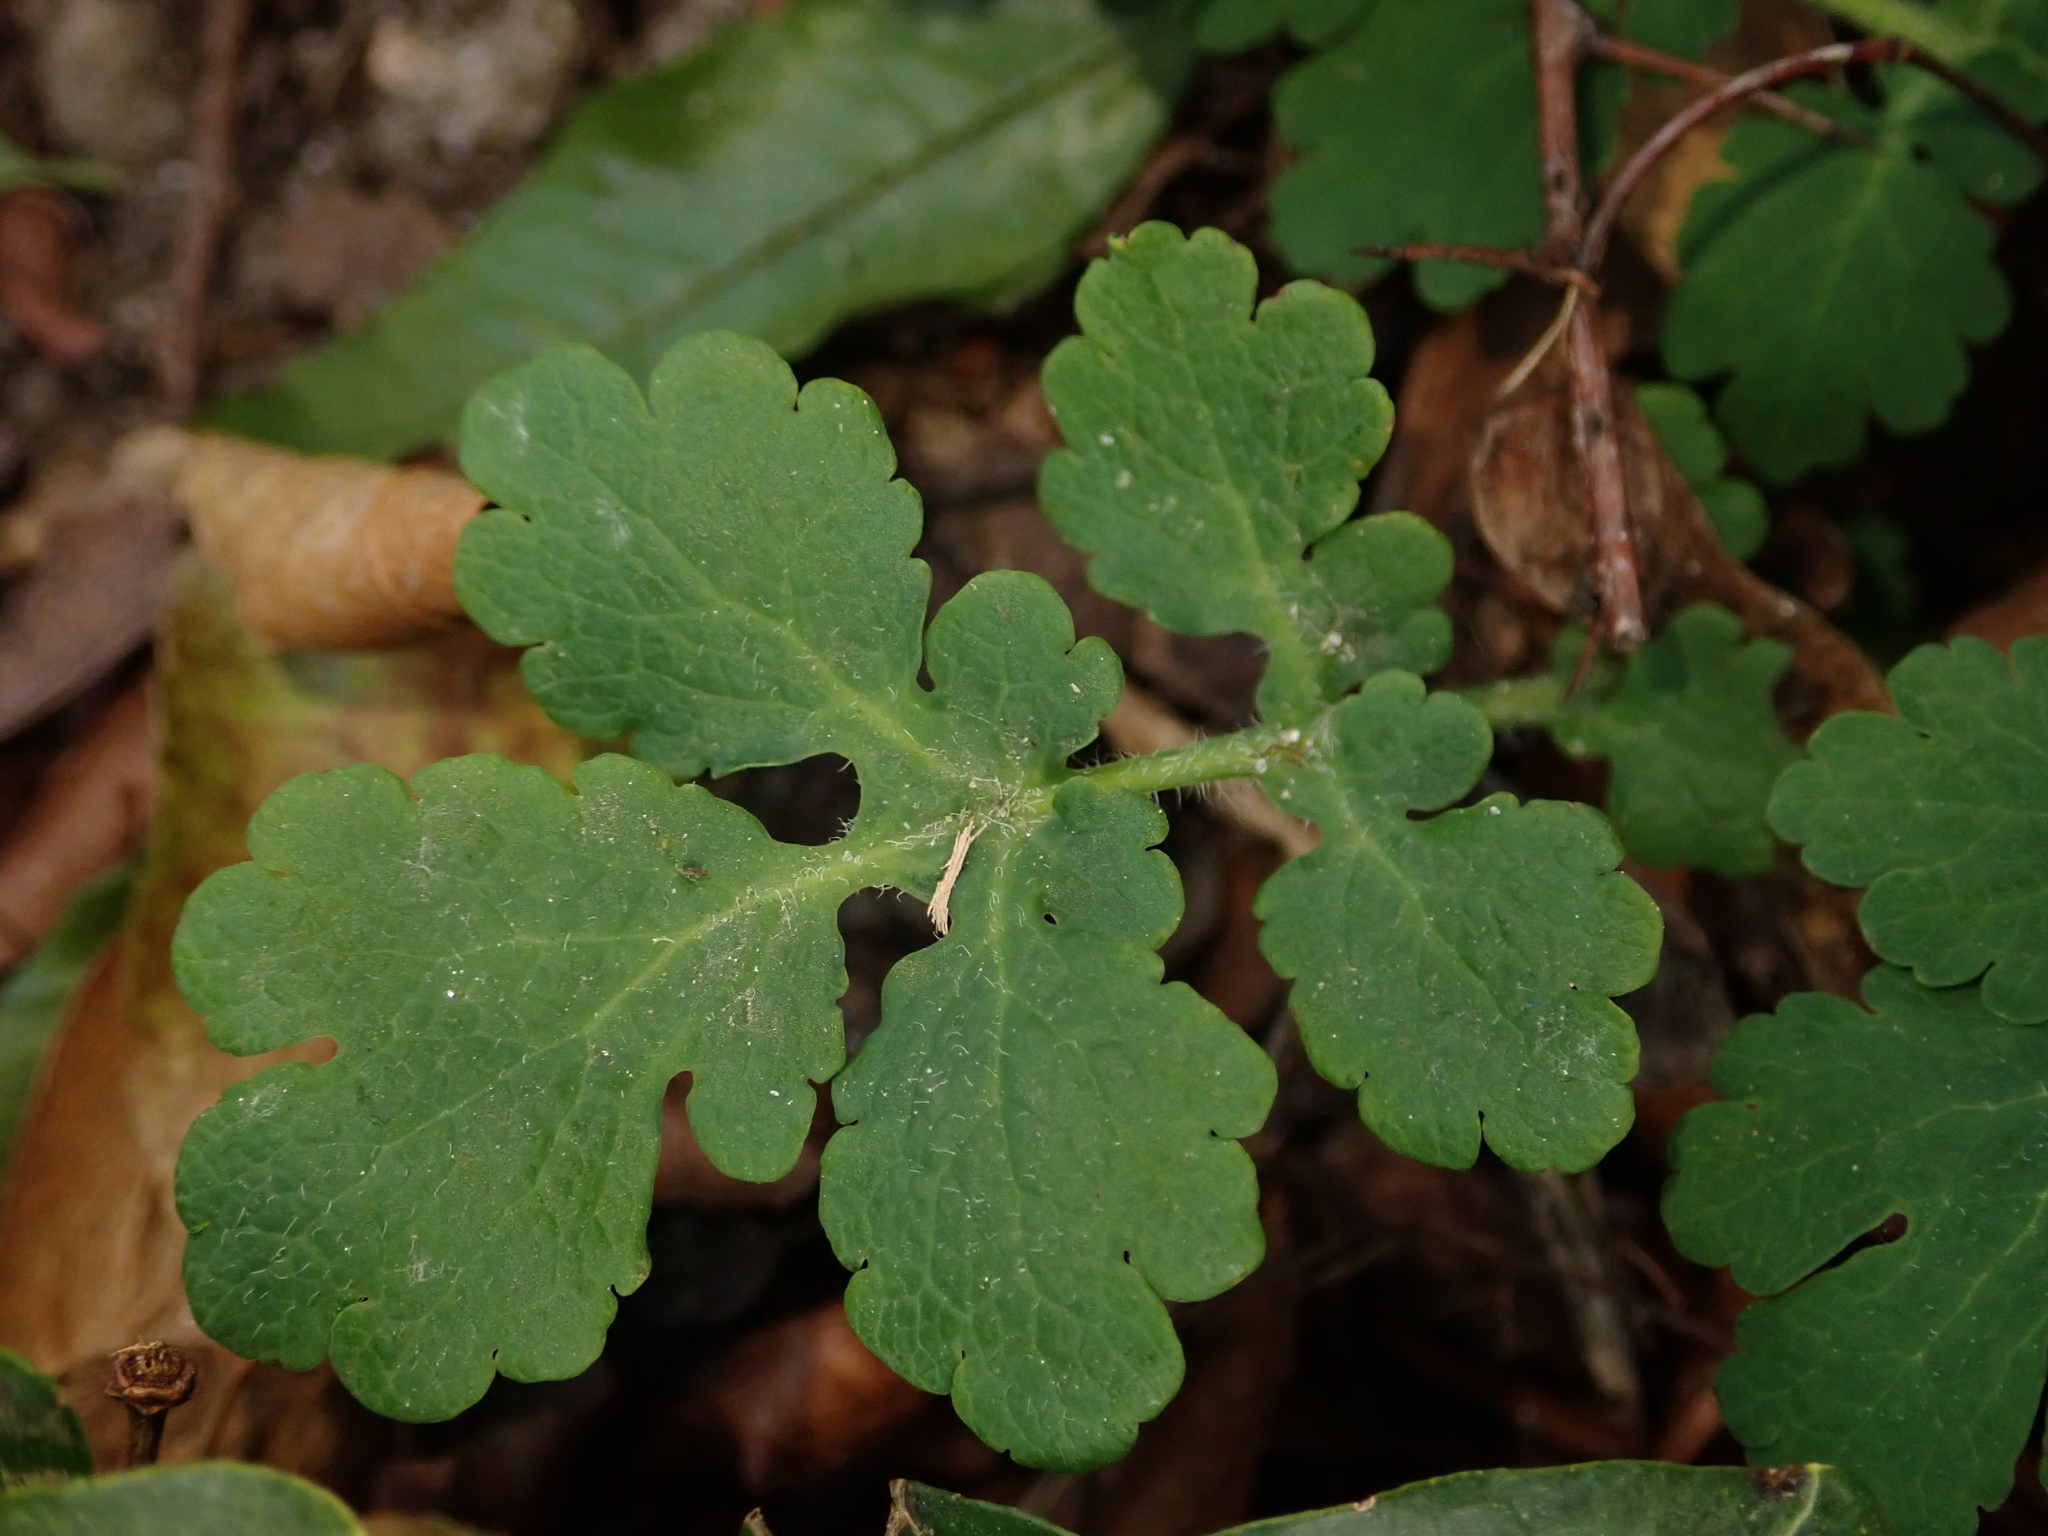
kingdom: Plantae
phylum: Tracheophyta
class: Magnoliopsida
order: Ranunculales
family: Papaveraceae
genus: Chelidonium
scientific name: Chelidonium majus
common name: Greater celandine
